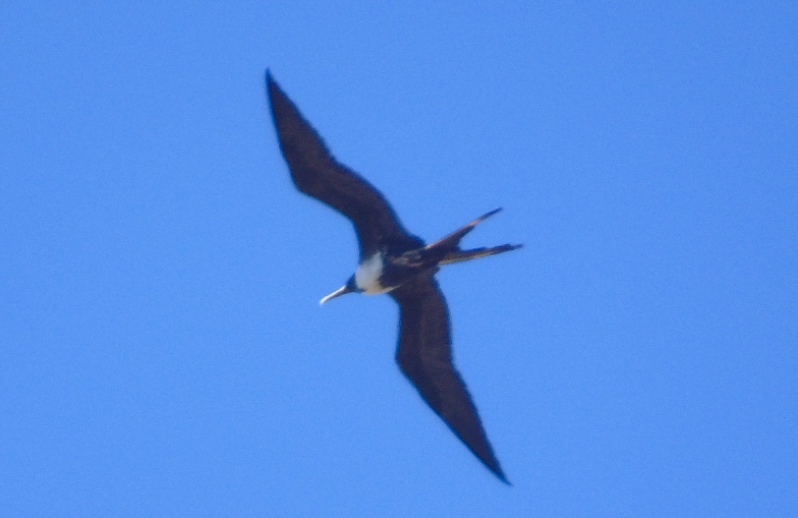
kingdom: Animalia
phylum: Chordata
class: Aves
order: Suliformes
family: Fregatidae
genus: Fregata
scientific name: Fregata magnificens
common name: Magnificent frigatebird
